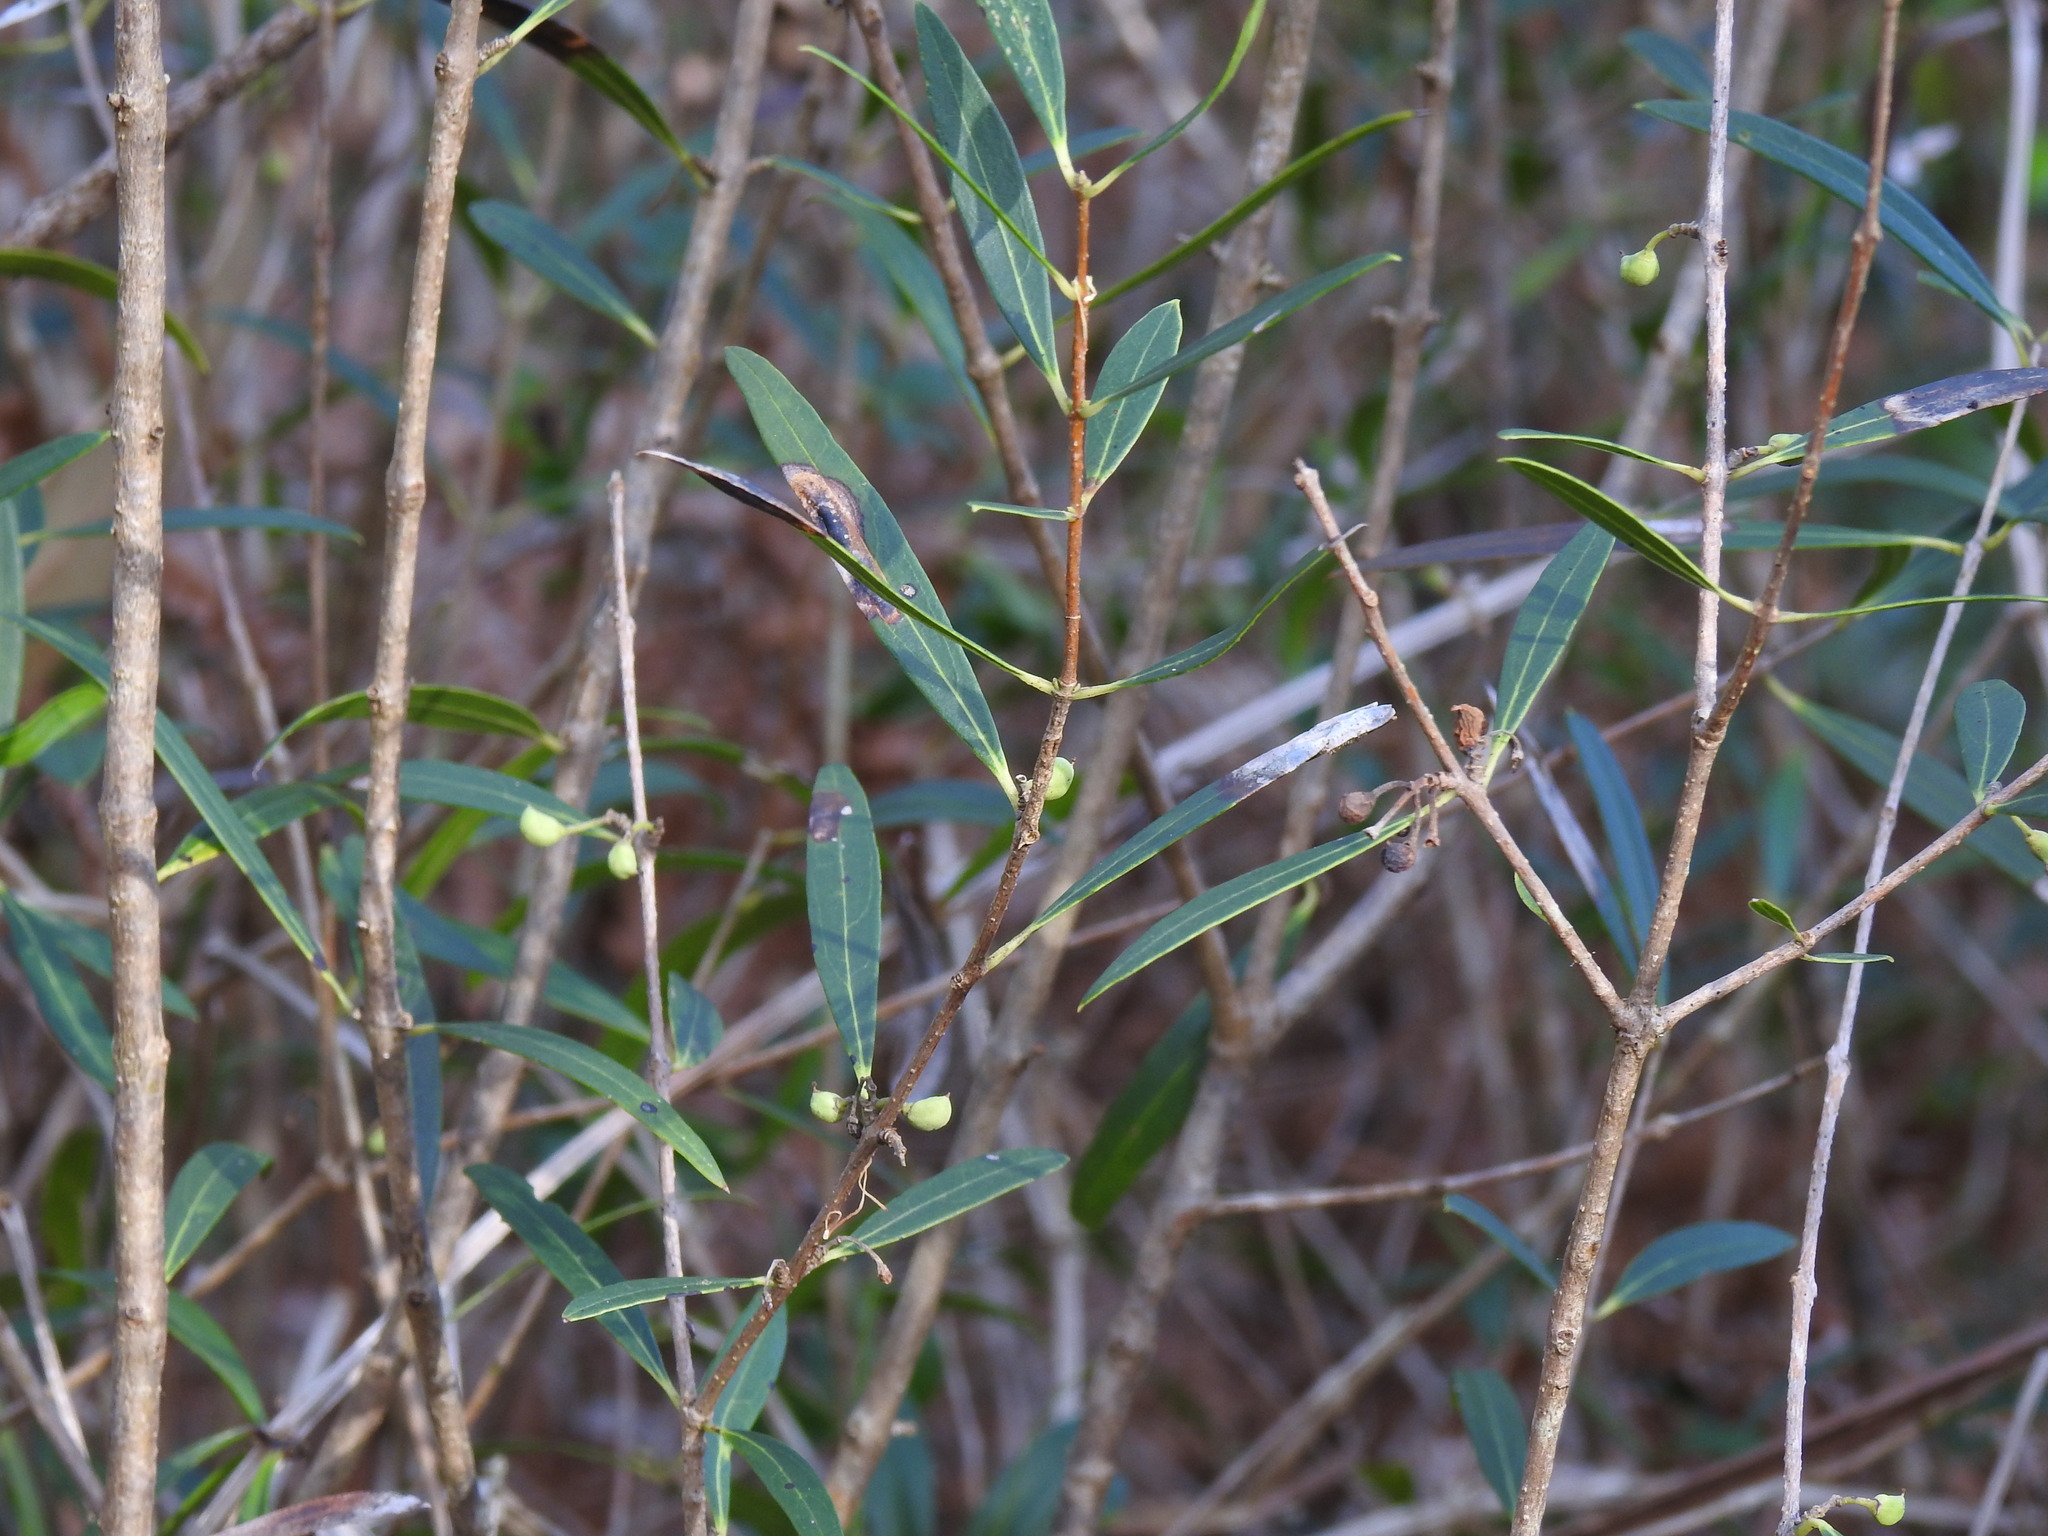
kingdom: Plantae
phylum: Tracheophyta
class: Magnoliopsida
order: Lamiales
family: Oleaceae
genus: Phillyrea
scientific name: Phillyrea angustifolia
